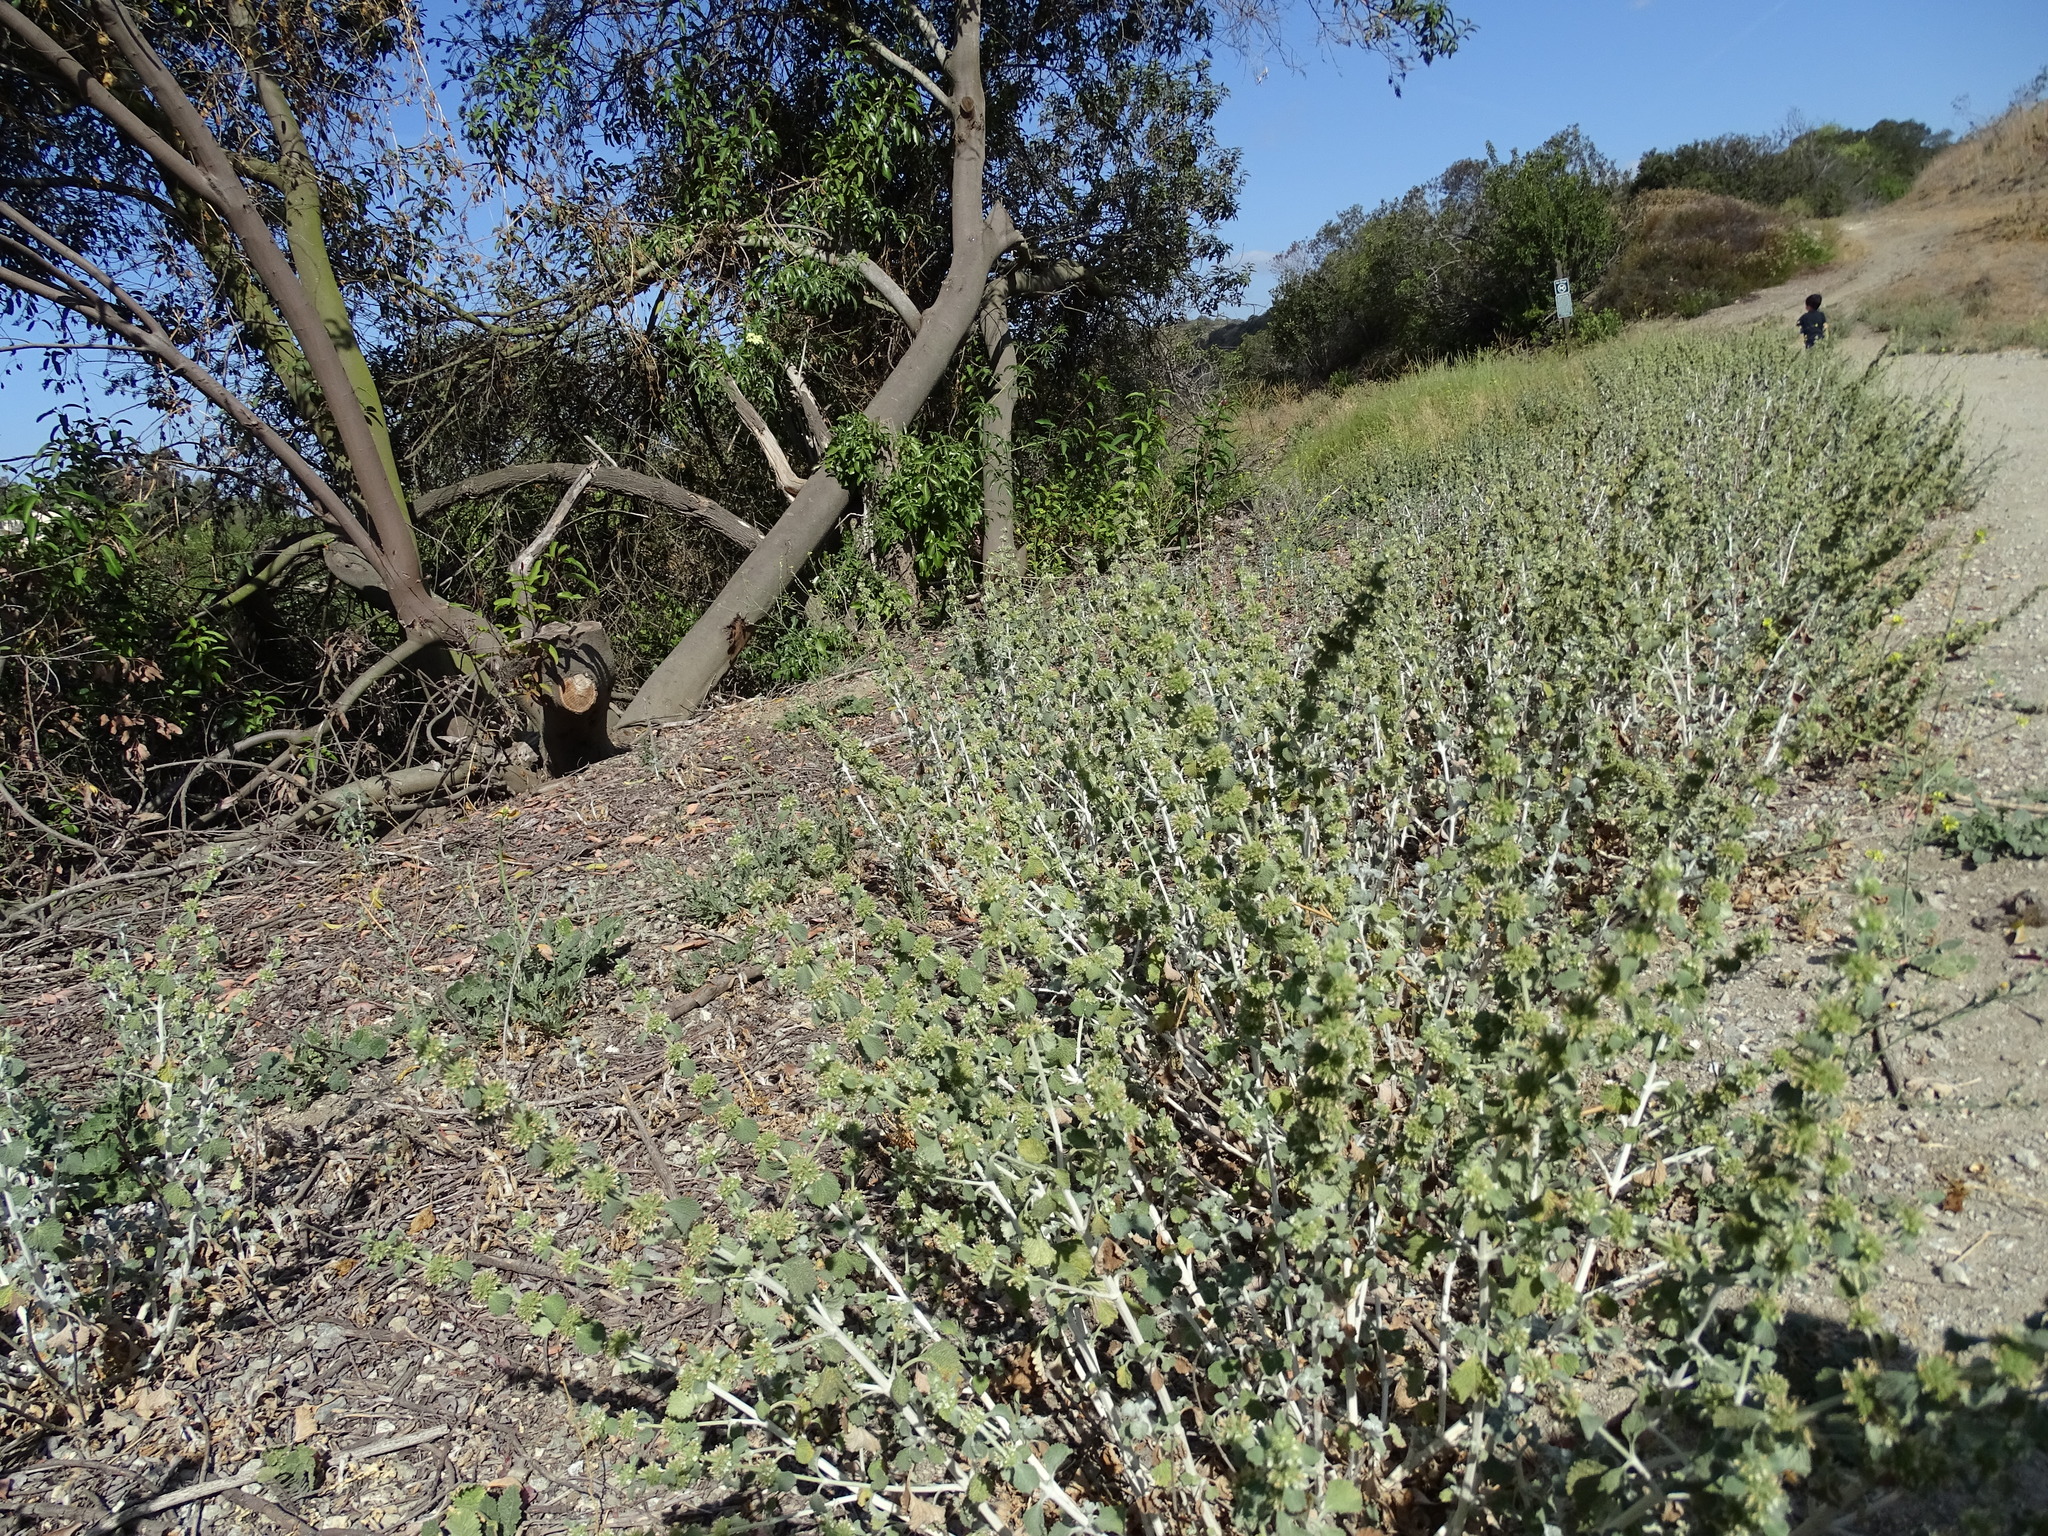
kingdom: Plantae
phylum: Tracheophyta
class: Magnoliopsida
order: Lamiales
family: Lamiaceae
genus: Marrubium
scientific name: Marrubium vulgare
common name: Horehound
